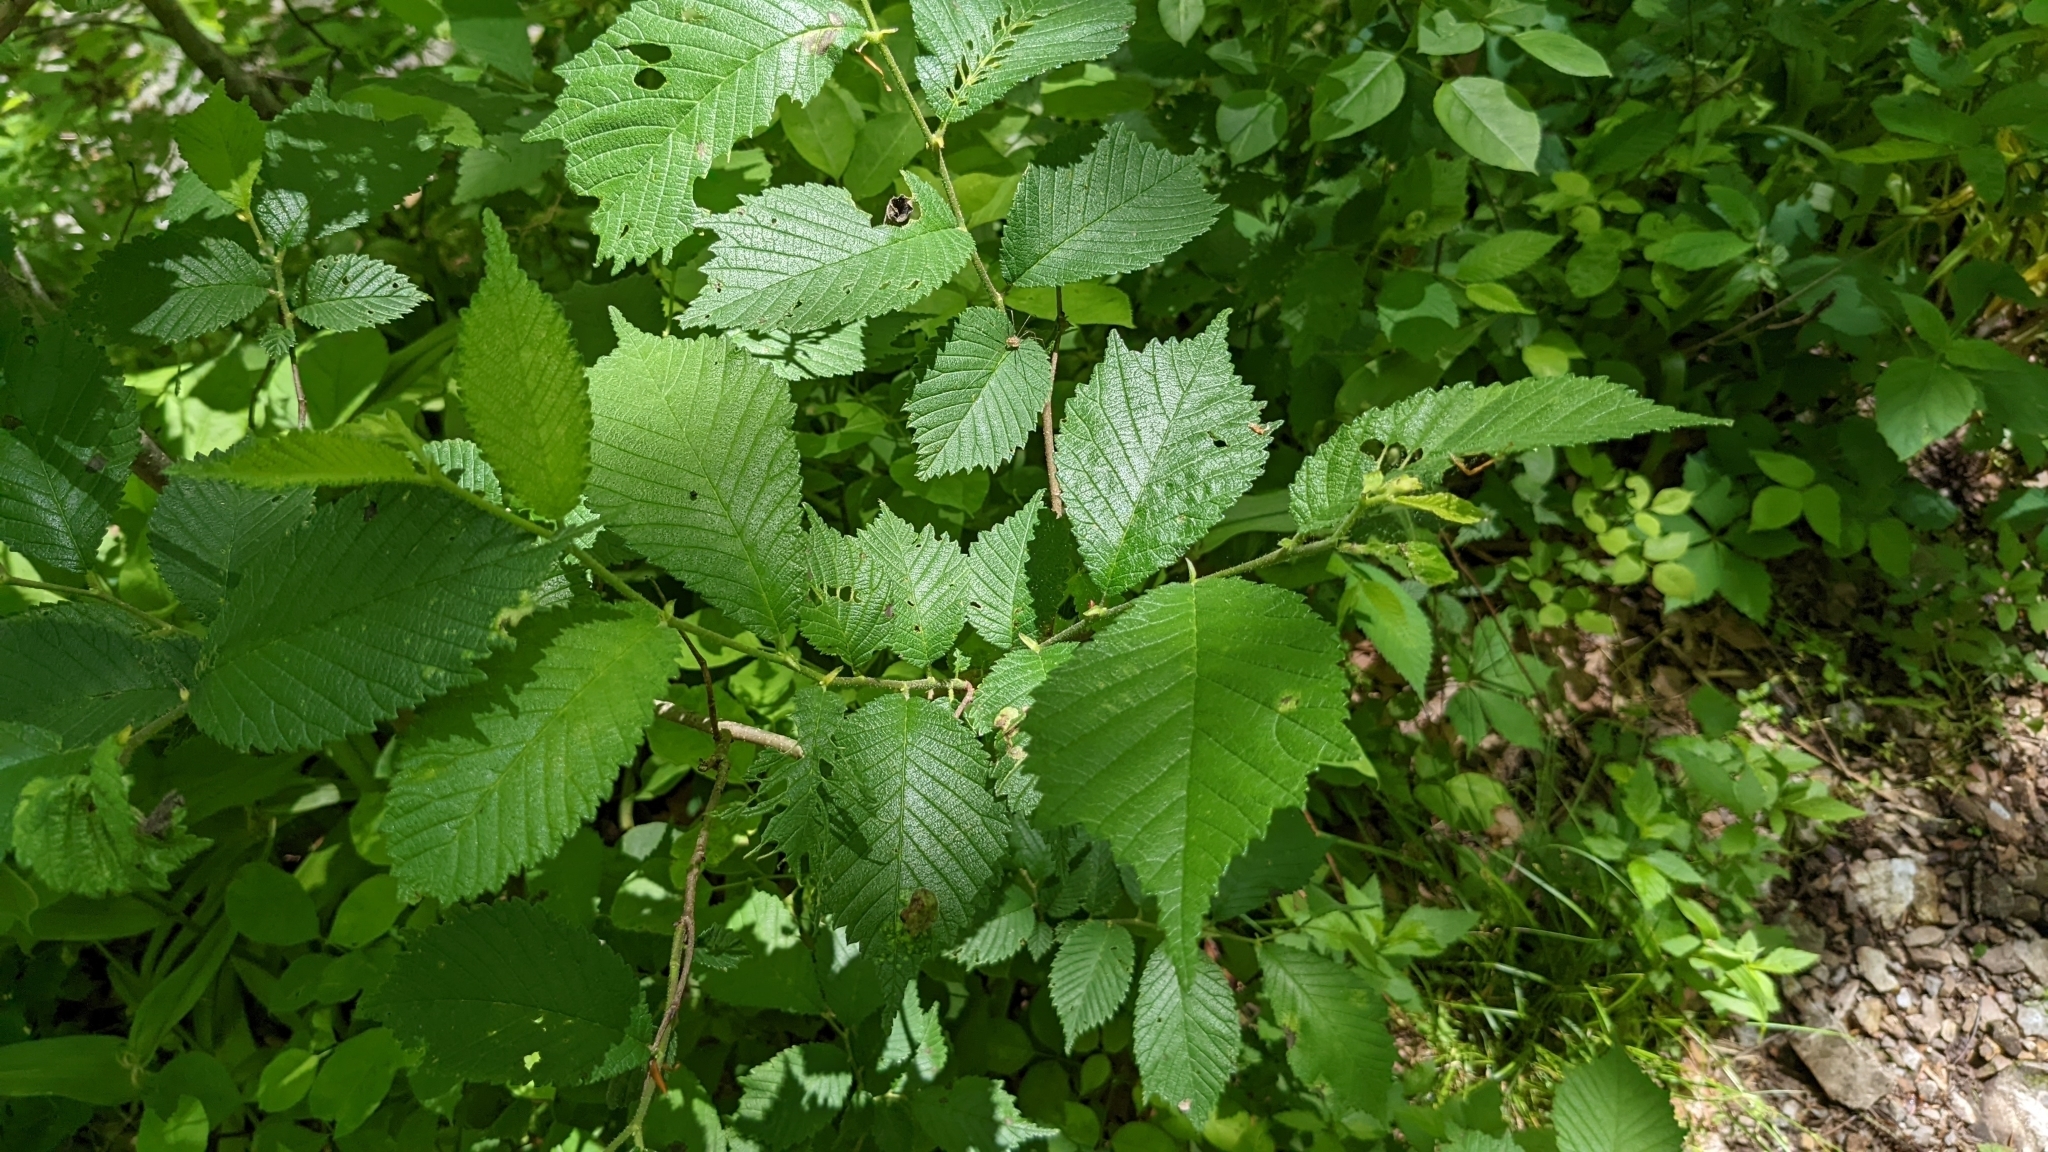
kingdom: Animalia
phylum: Arthropoda
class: Insecta
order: Hemiptera
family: Aphididae
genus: Tetraneura
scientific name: Tetraneura nigriabdominalis
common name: Aphid
